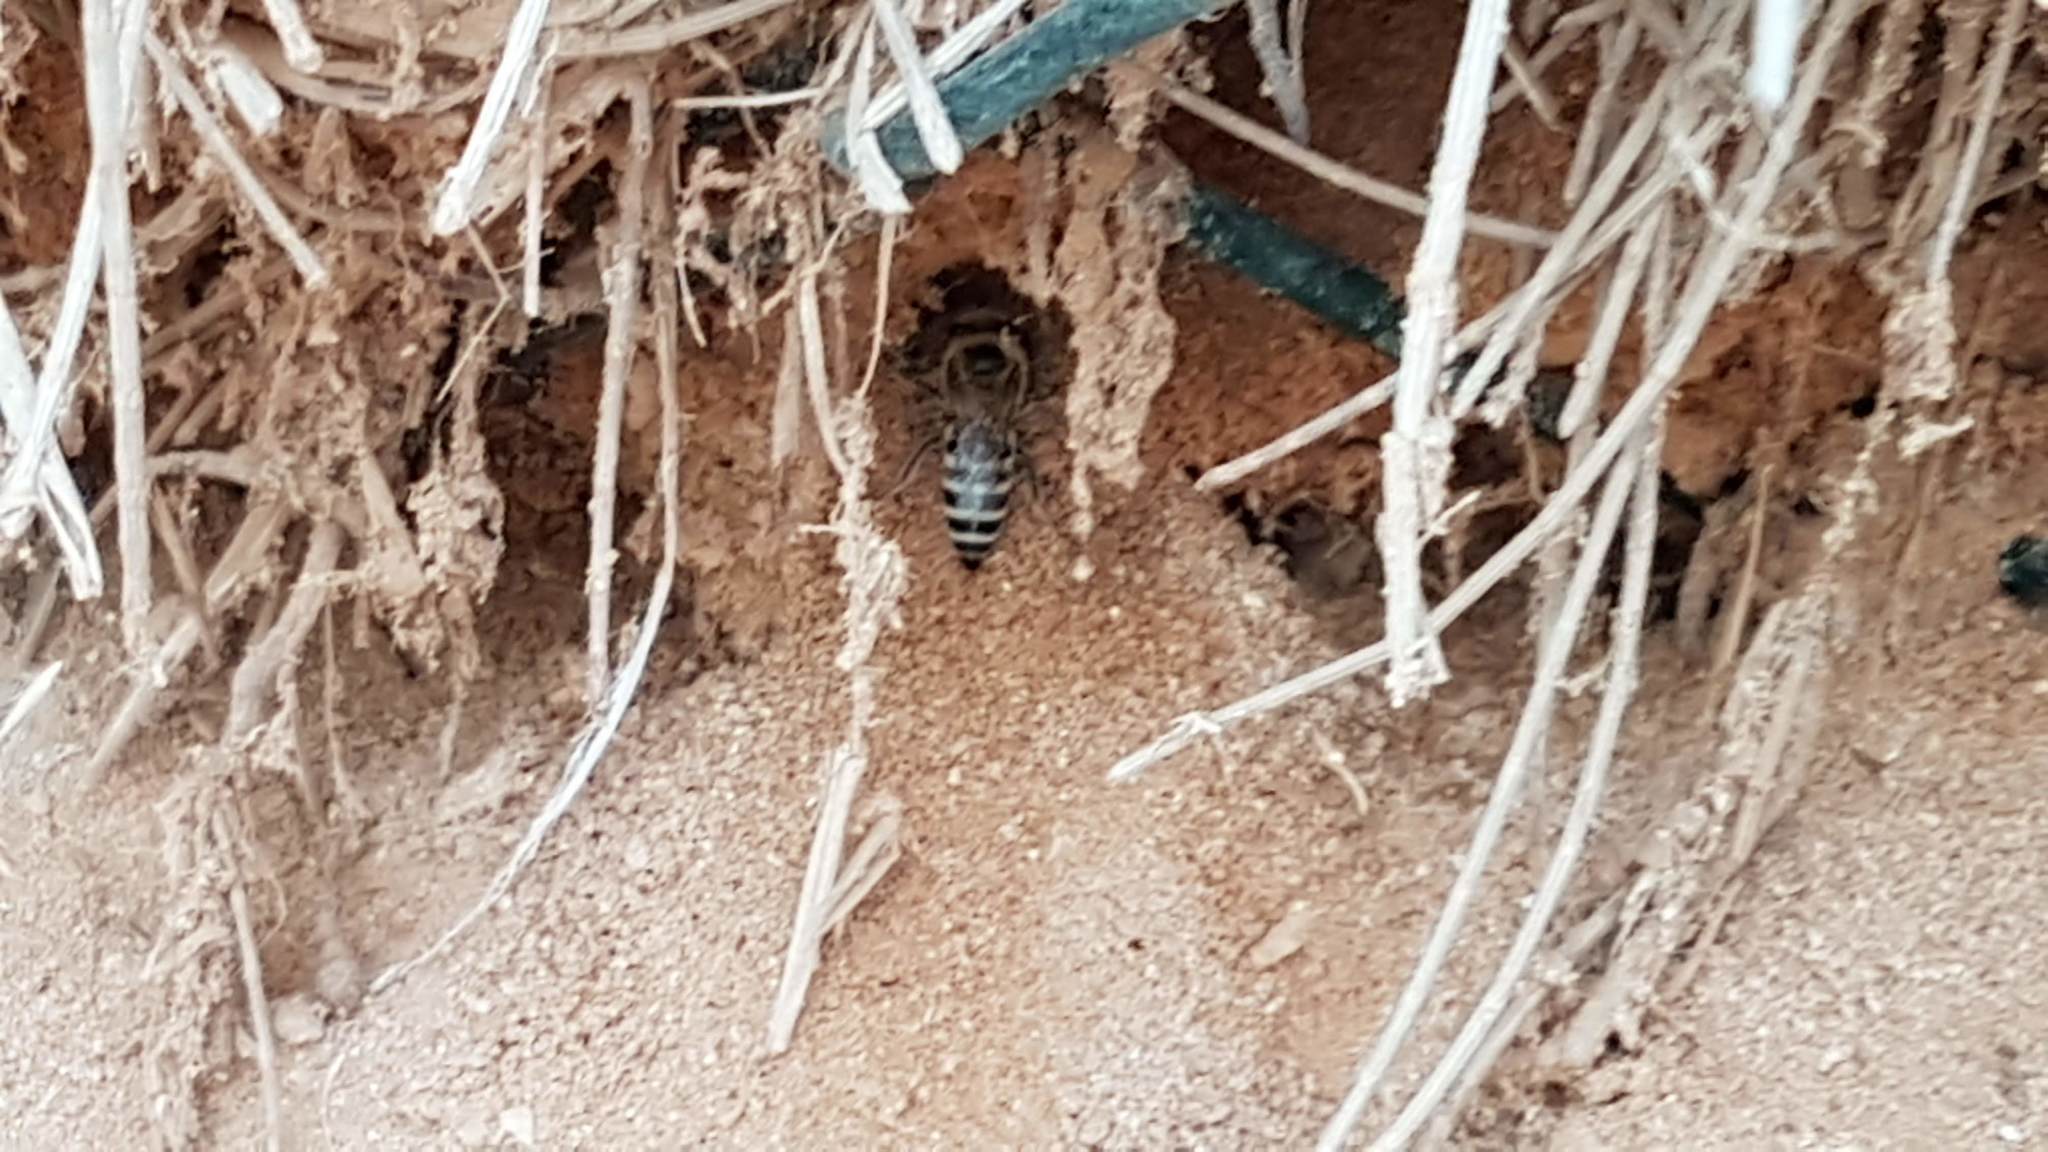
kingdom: Animalia
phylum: Arthropoda
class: Insecta
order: Hymenoptera
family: Colletidae
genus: Colletes
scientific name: Colletes perezi
